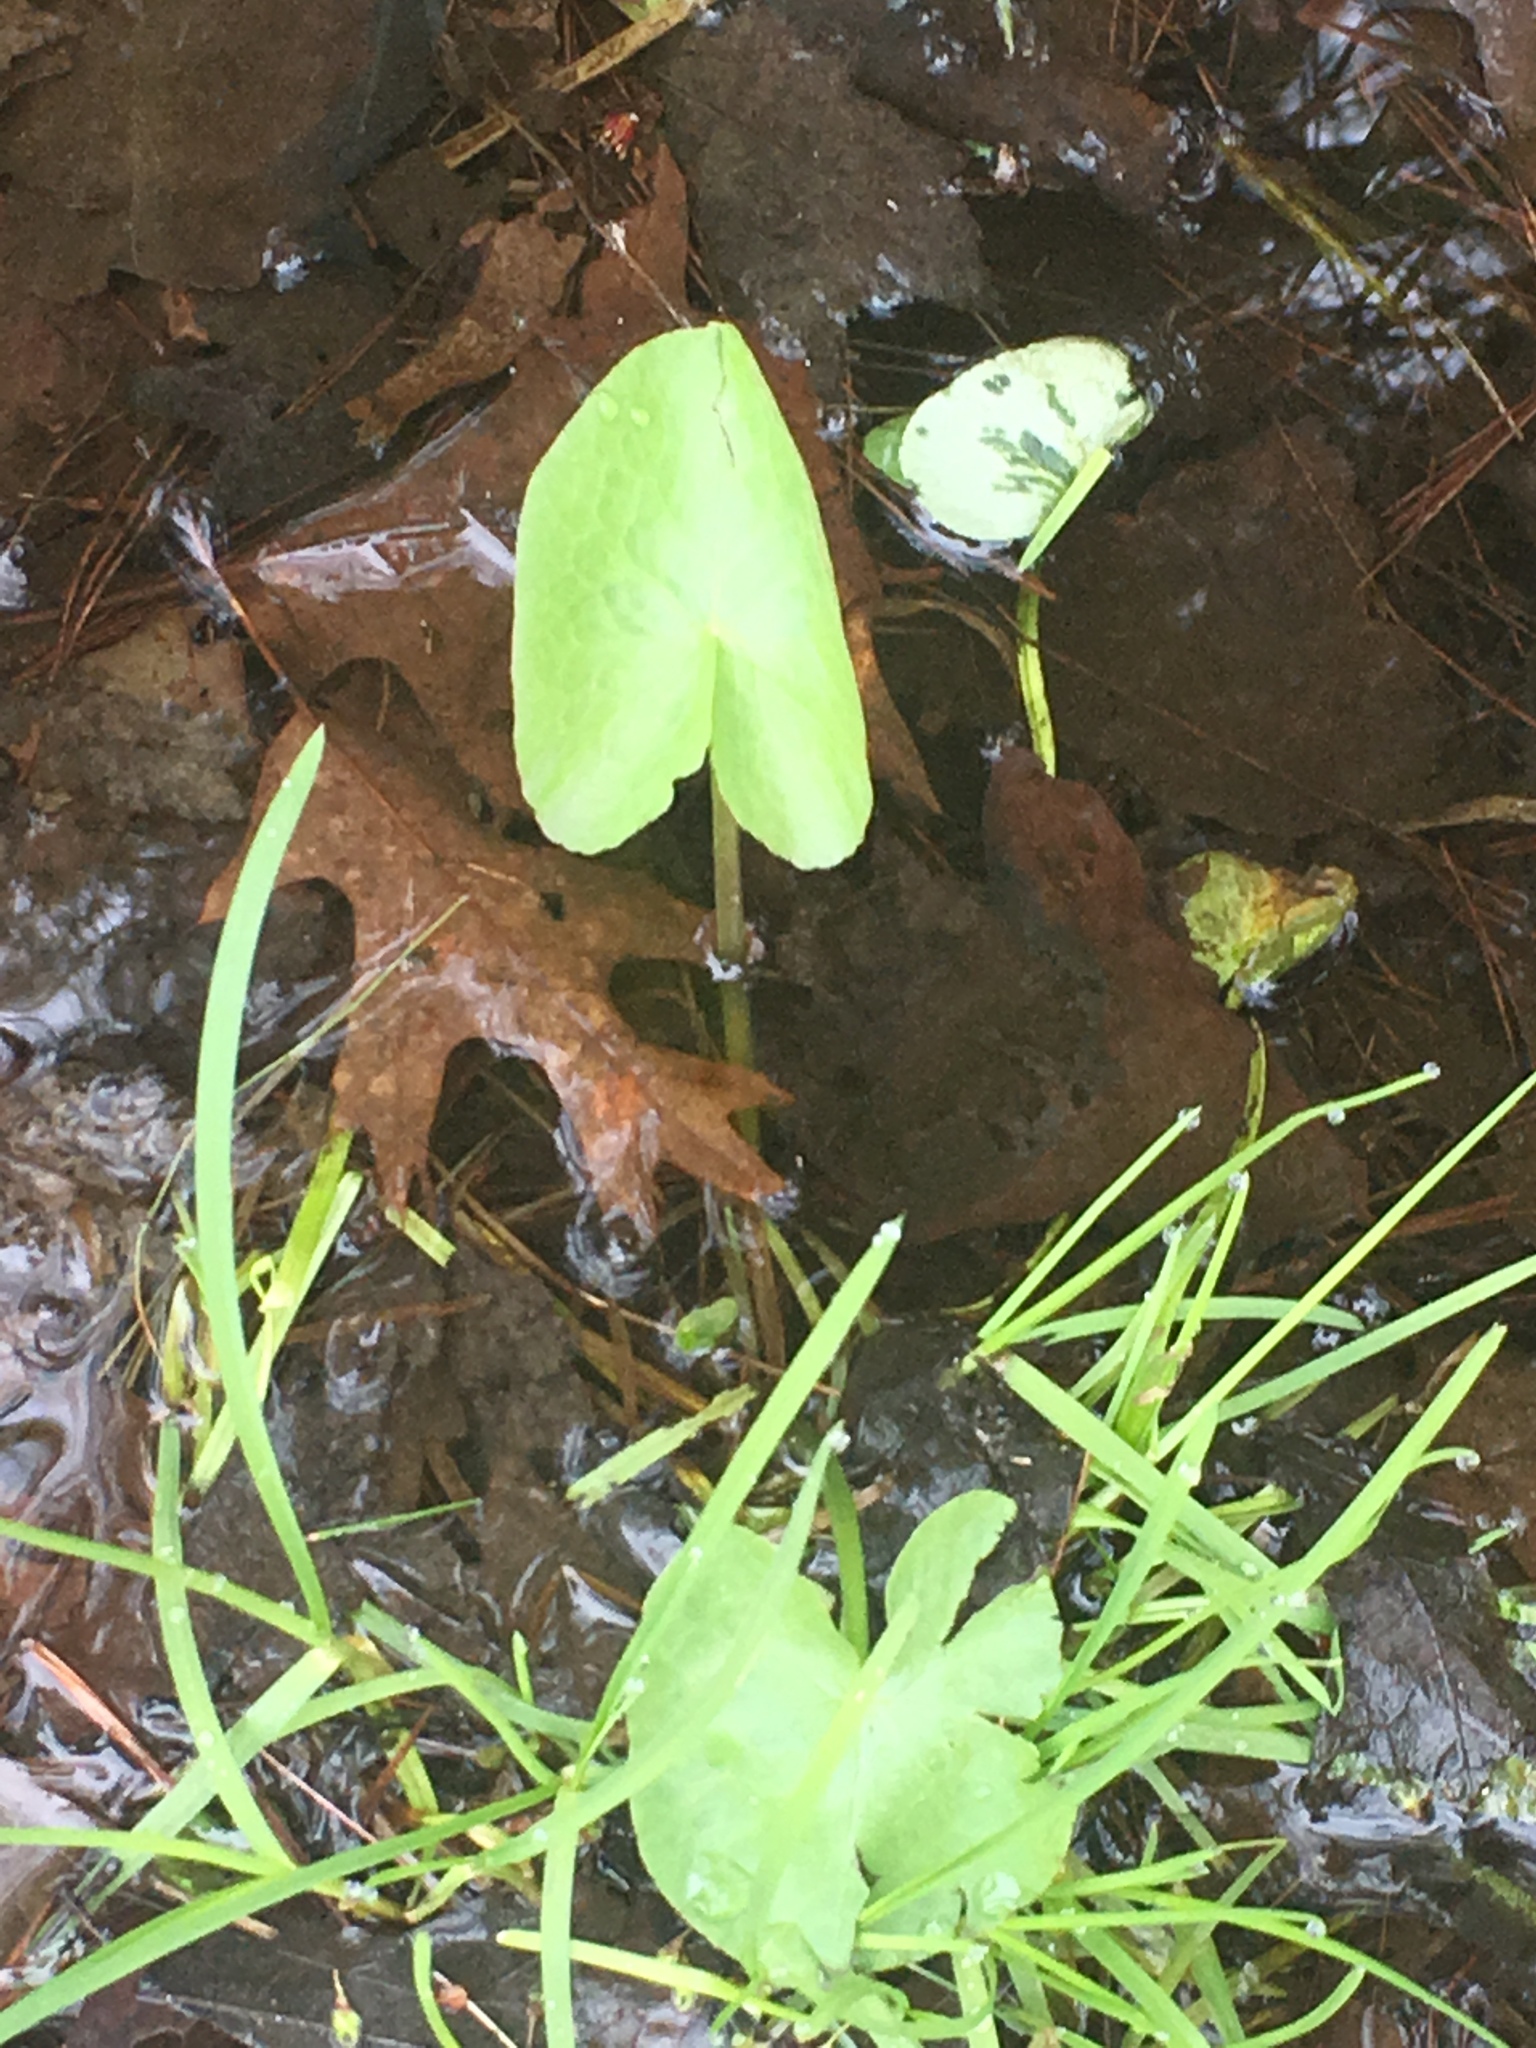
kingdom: Plantae
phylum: Tracheophyta
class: Magnoliopsida
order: Nymphaeales
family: Nymphaeaceae
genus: Nuphar
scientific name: Nuphar advena
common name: Spatter-dock
